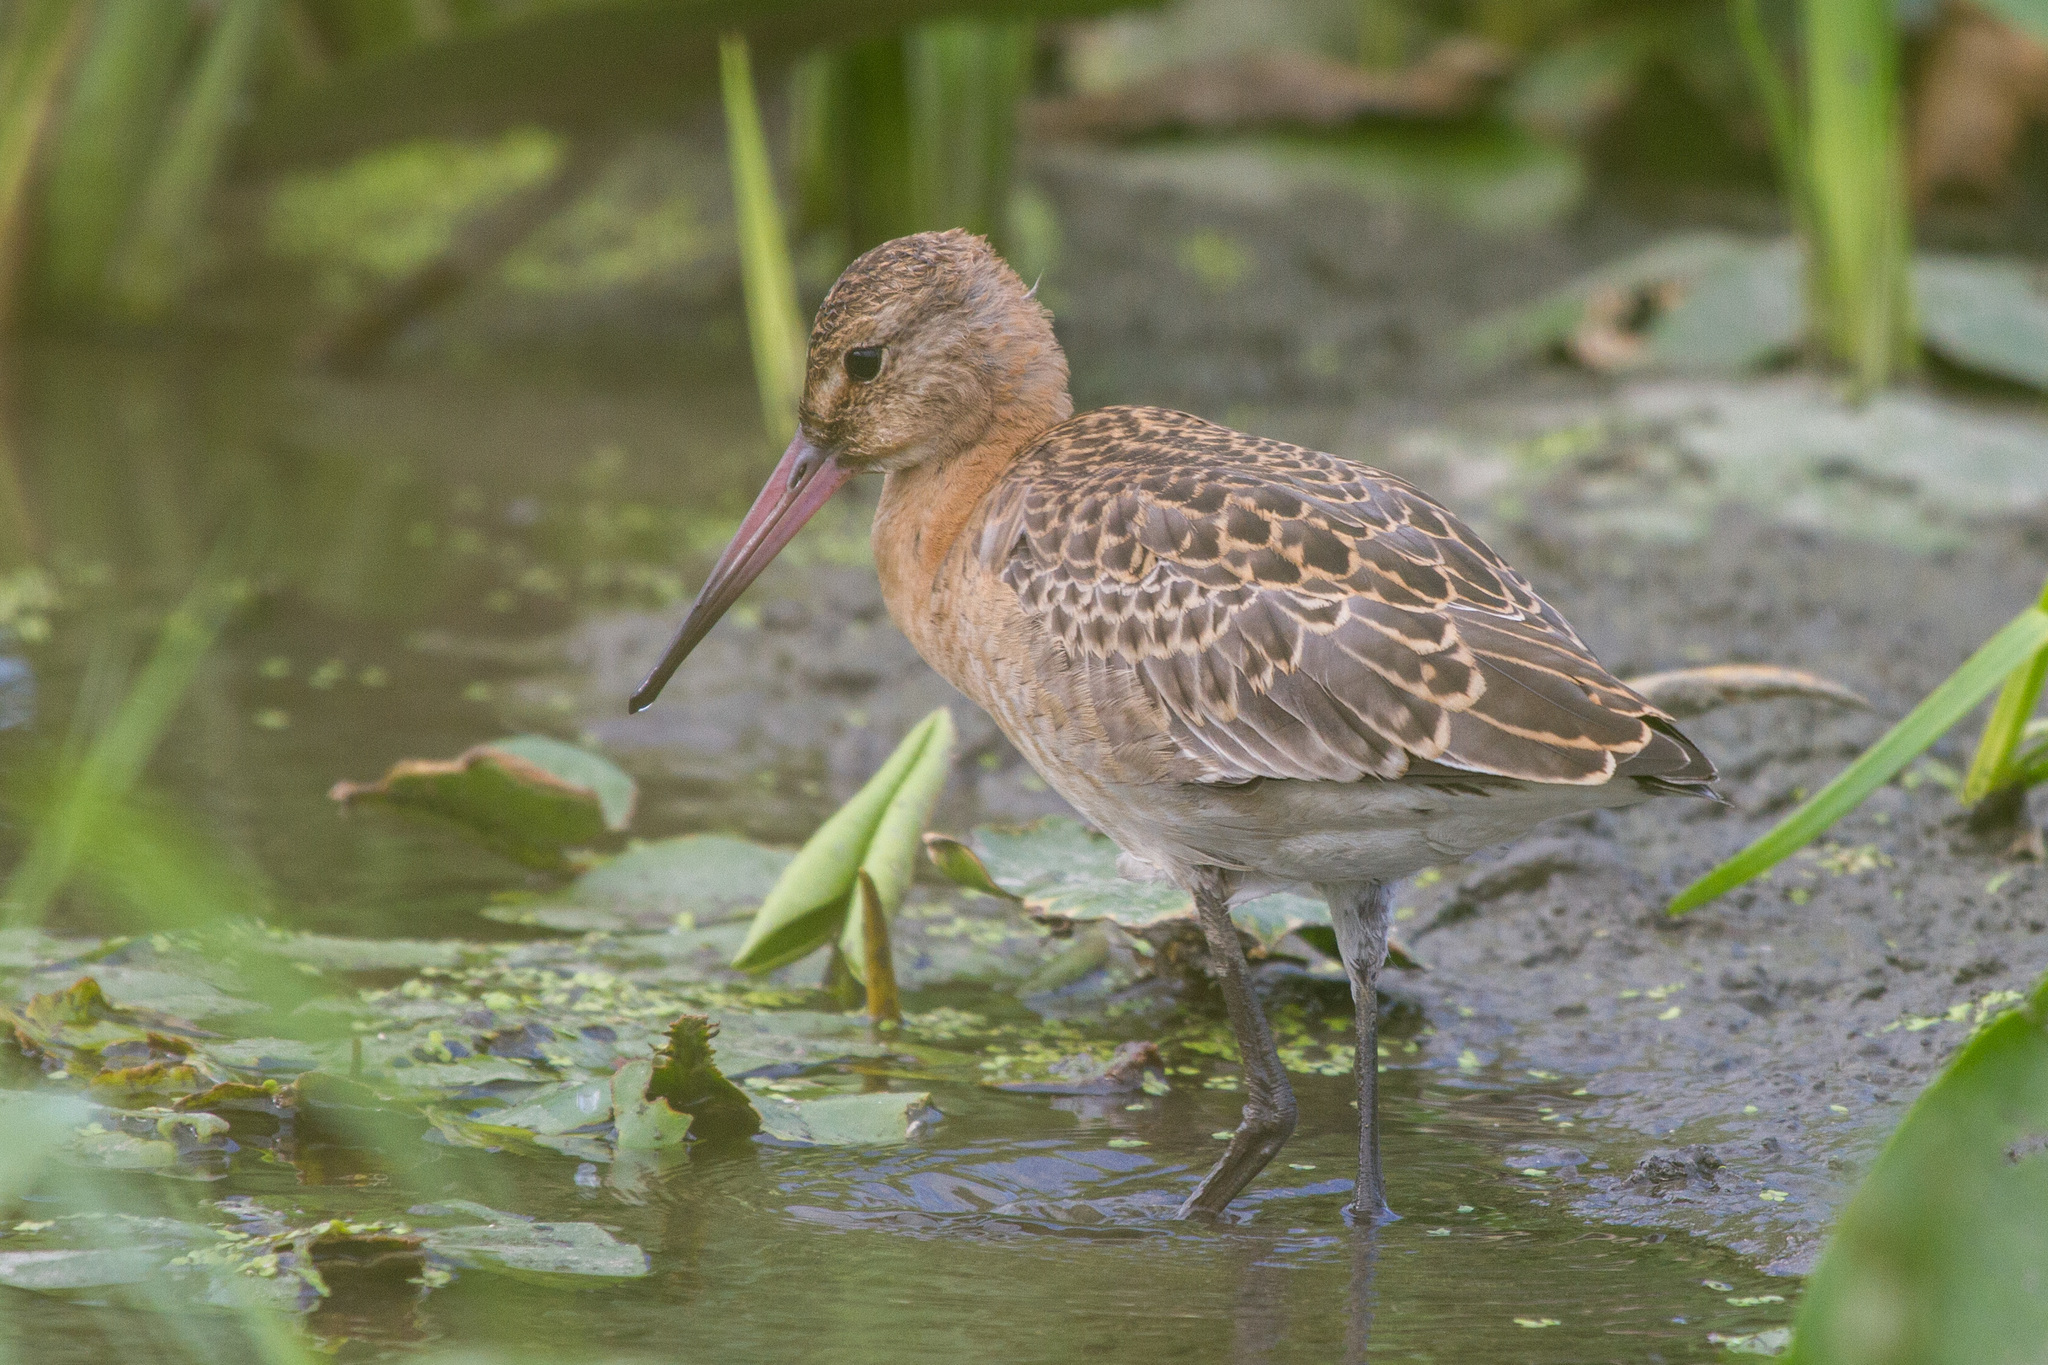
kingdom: Animalia
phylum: Chordata
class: Aves
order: Charadriiformes
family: Scolopacidae
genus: Limosa
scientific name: Limosa limosa
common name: Black-tailed godwit
